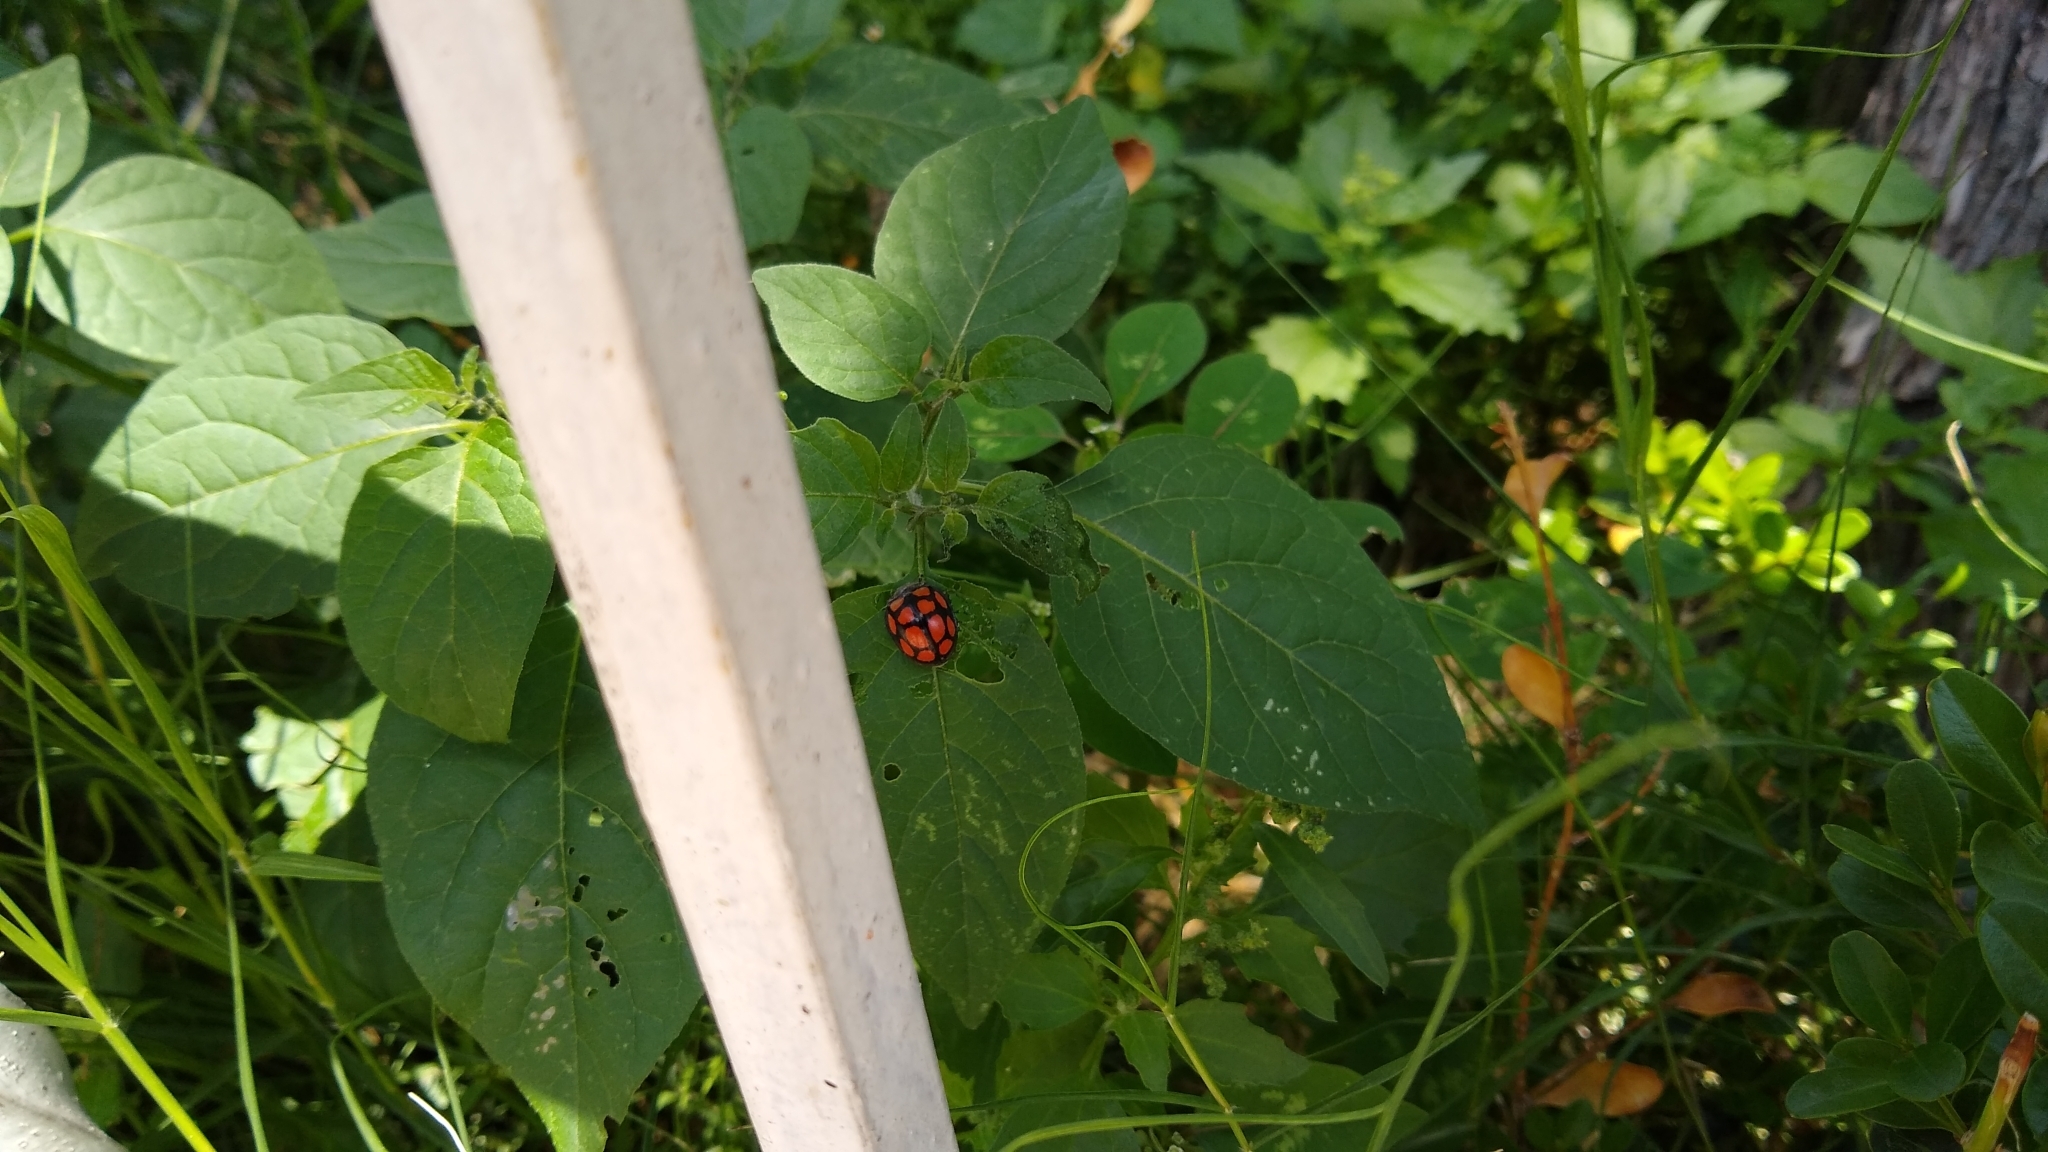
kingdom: Animalia
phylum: Arthropoda
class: Insecta
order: Coleoptera
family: Coccinellidae
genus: Epilachna
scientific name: Epilachna
